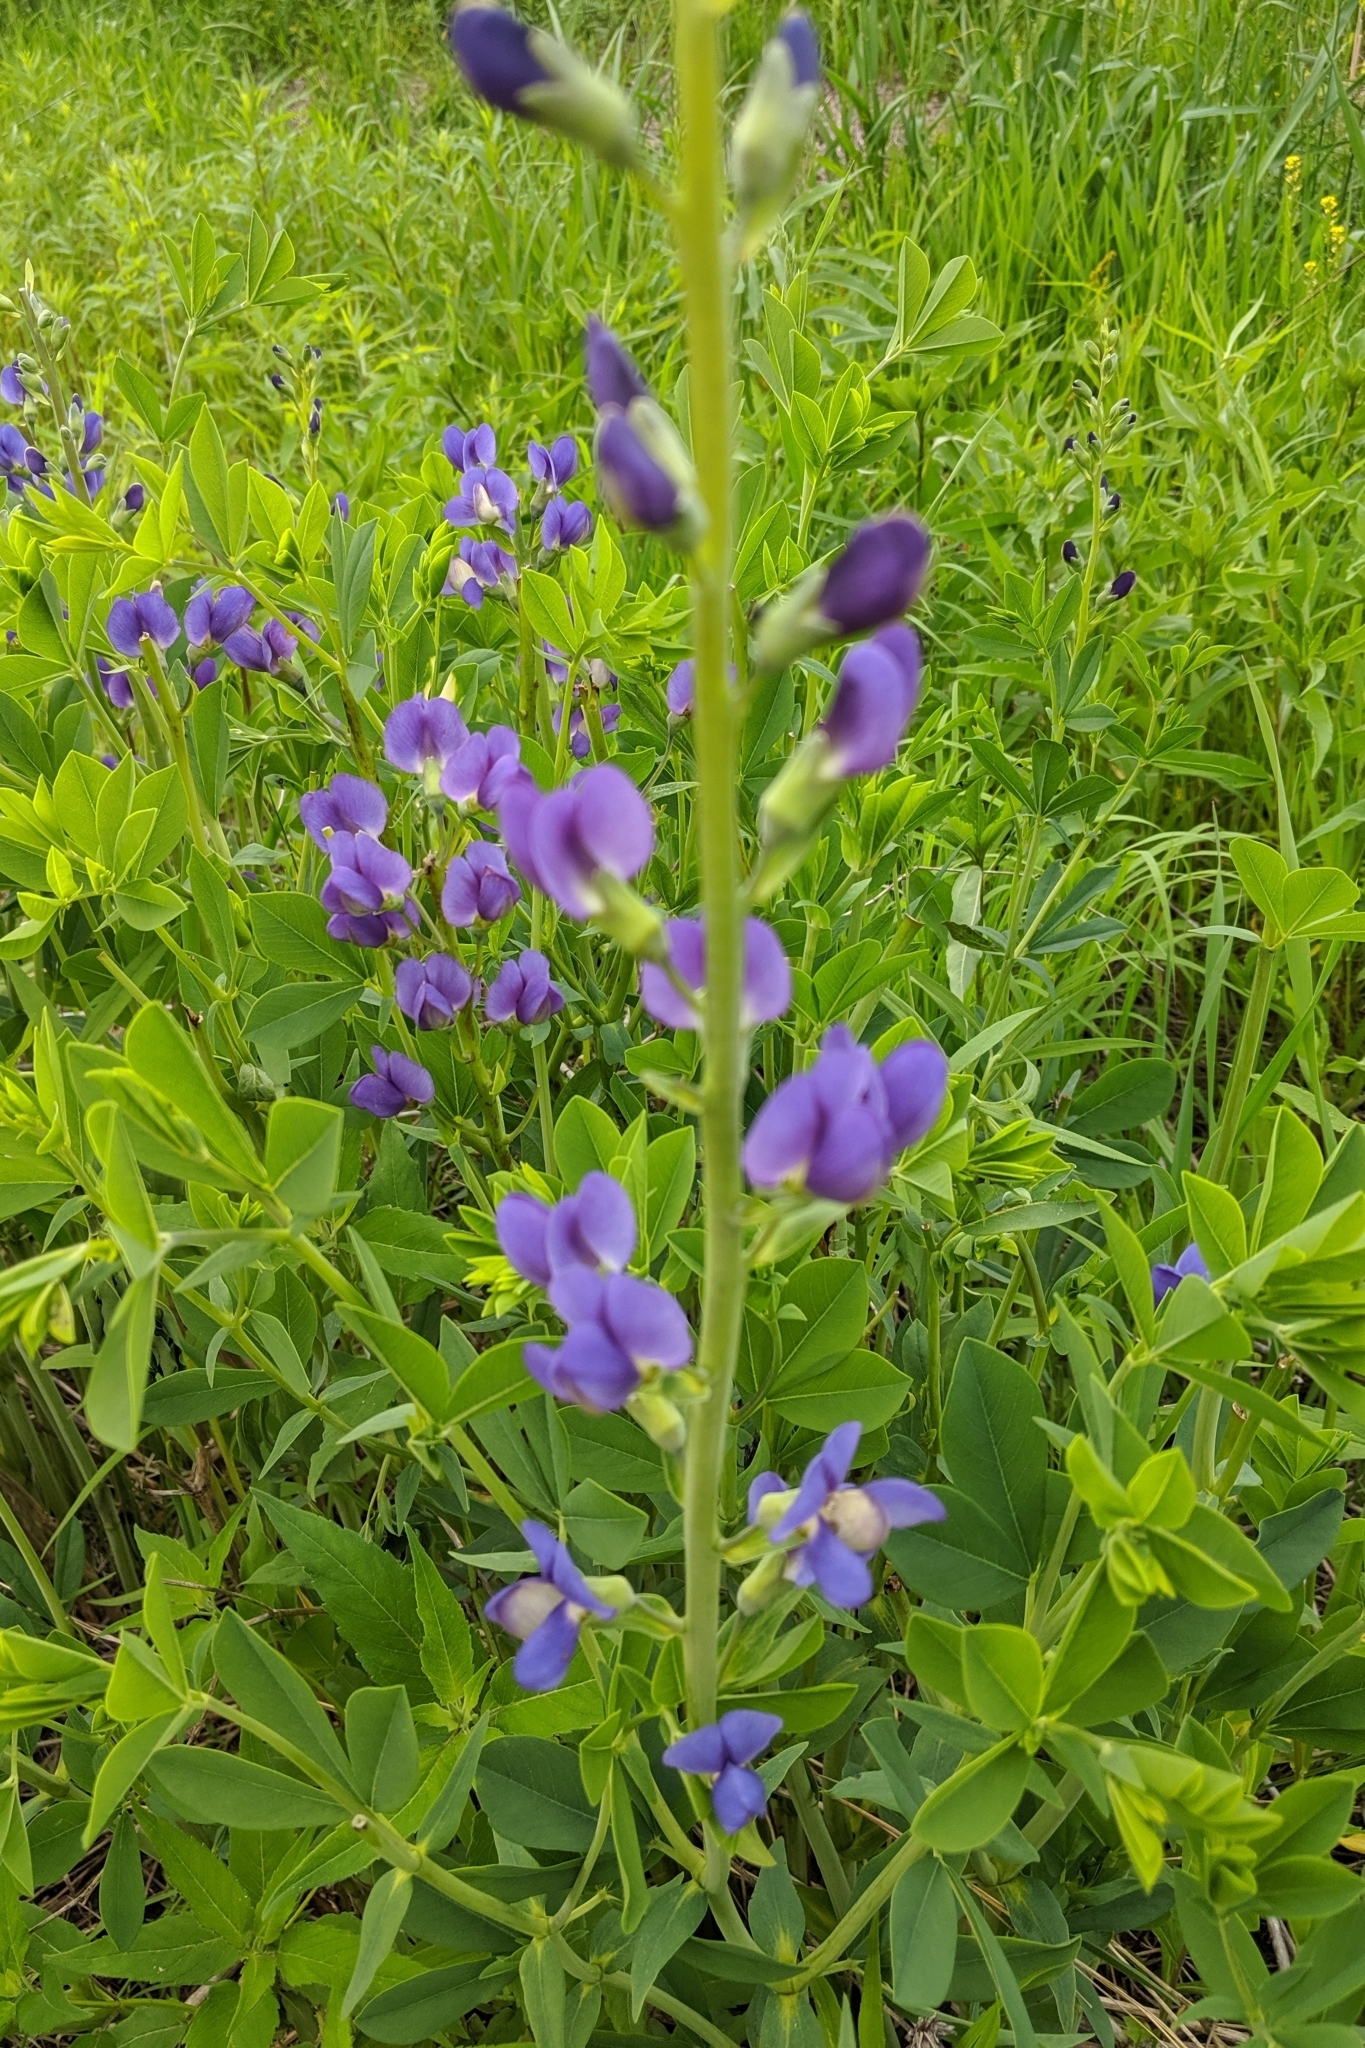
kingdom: Plantae
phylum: Tracheophyta
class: Magnoliopsida
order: Fabales
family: Fabaceae
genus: Baptisia
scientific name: Baptisia australis
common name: Blue false indigo
